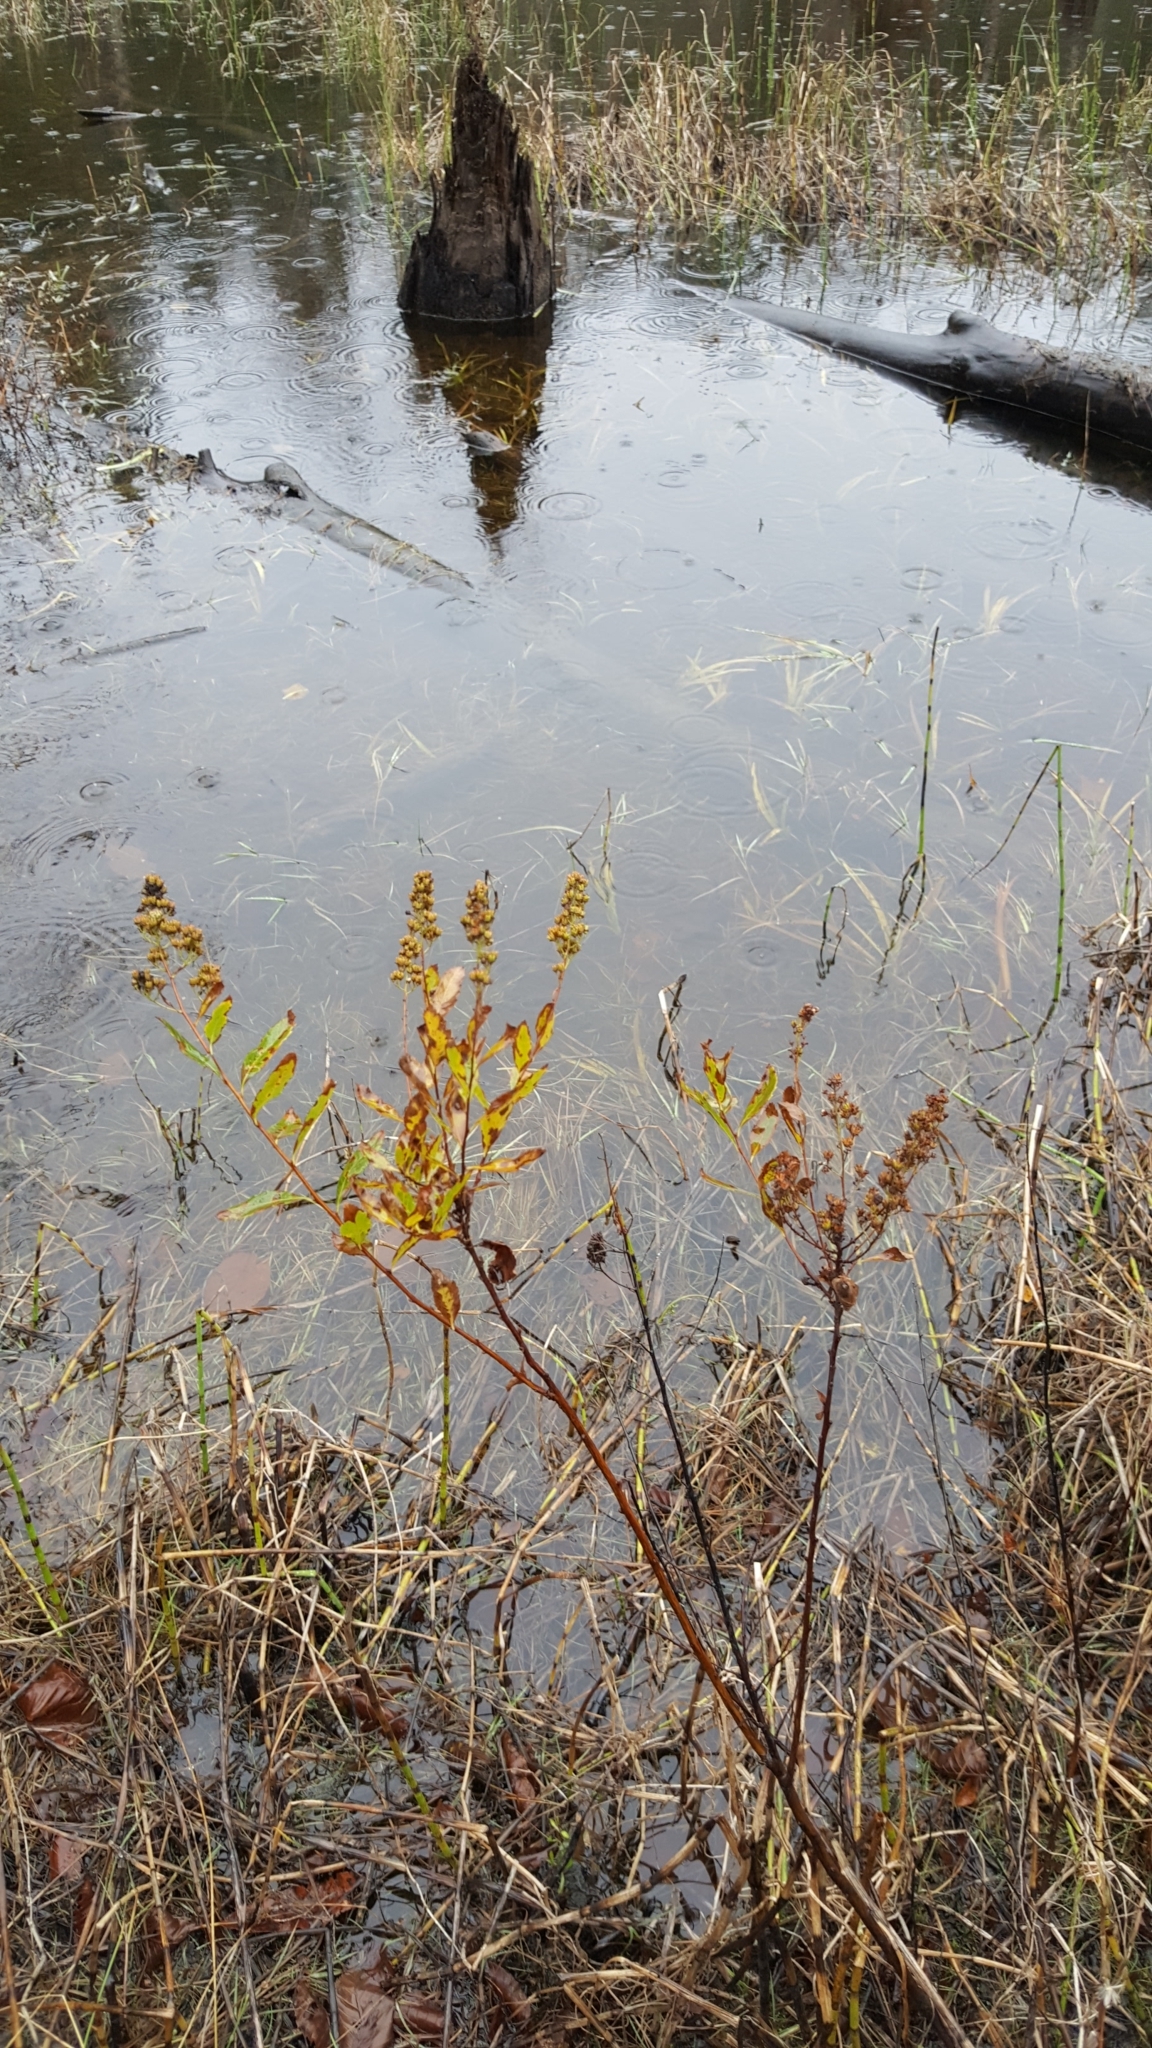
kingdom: Plantae
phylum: Tracheophyta
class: Magnoliopsida
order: Rosales
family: Rosaceae
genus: Spiraea
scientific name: Spiraea alba
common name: Pale bridewort
